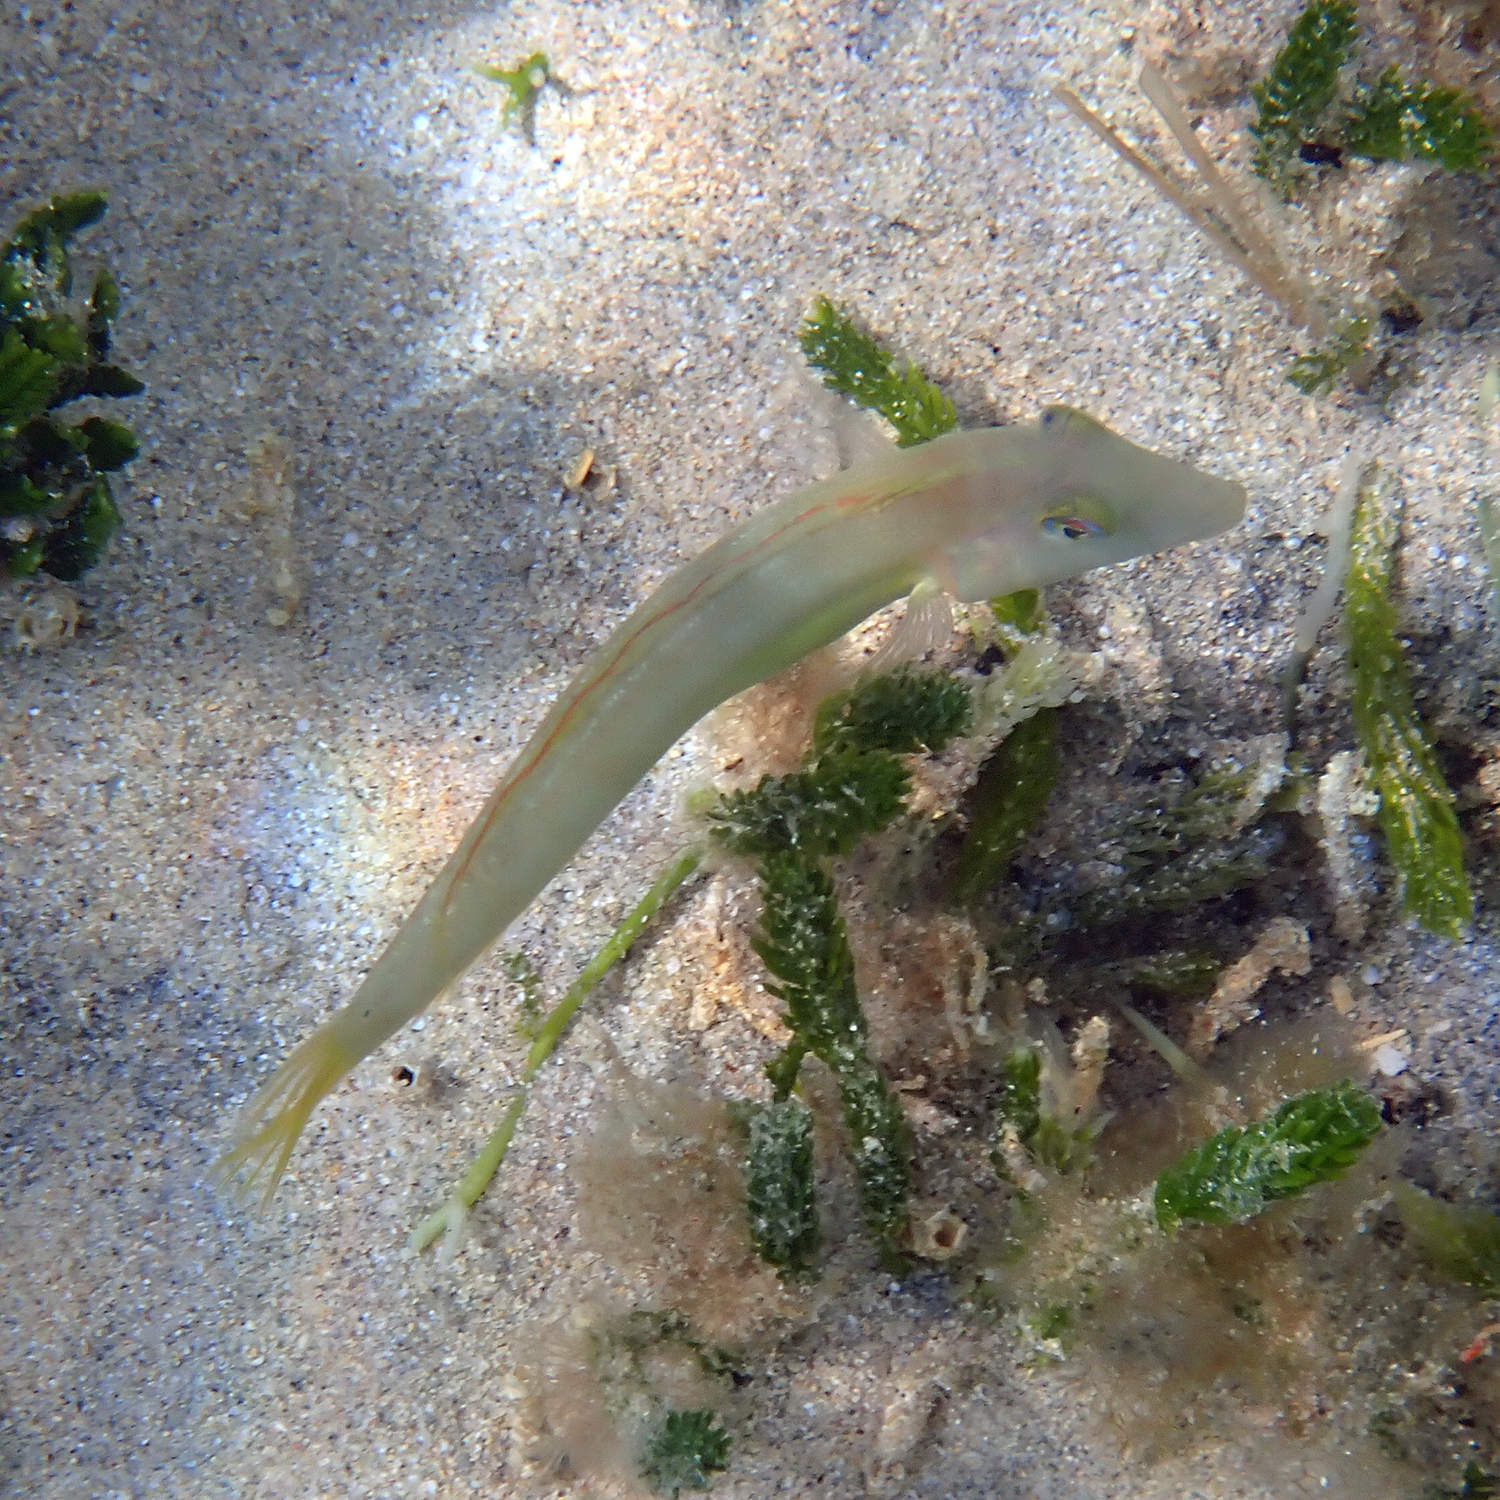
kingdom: Animalia
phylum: Chordata
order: Perciformes
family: Labridae
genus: Cymolutes
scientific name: Cymolutes praetextatus
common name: Knife razorfish
